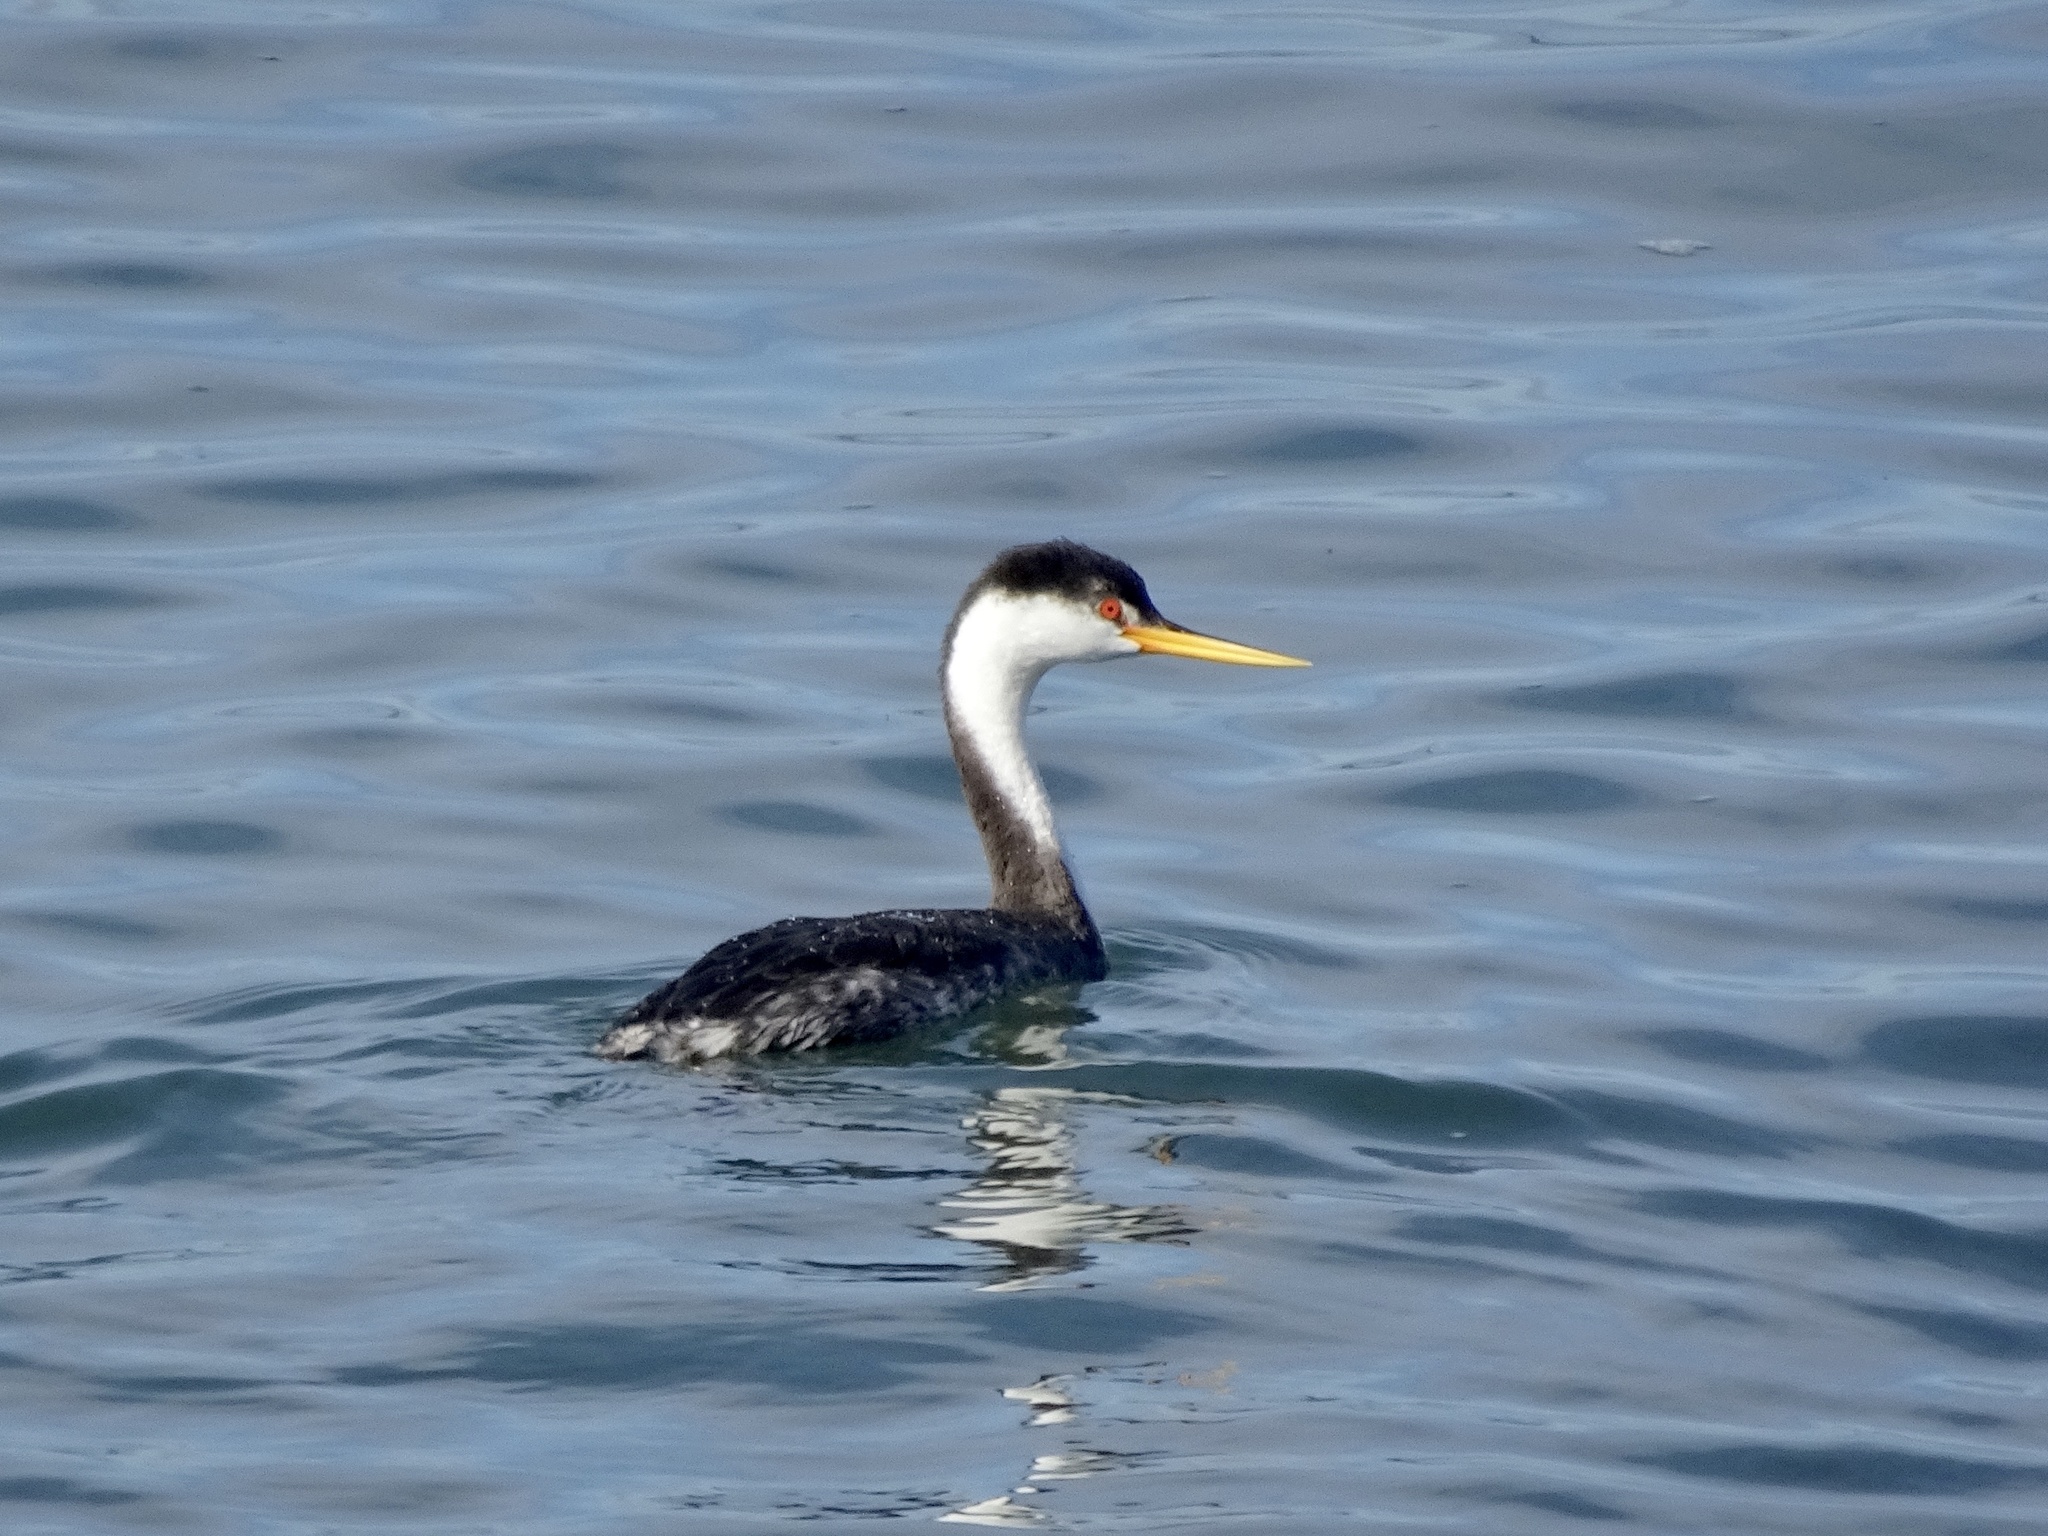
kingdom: Animalia
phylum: Chordata
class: Aves
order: Podicipediformes
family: Podicipedidae
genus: Aechmophorus
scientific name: Aechmophorus clarkii
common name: Clark's grebe
